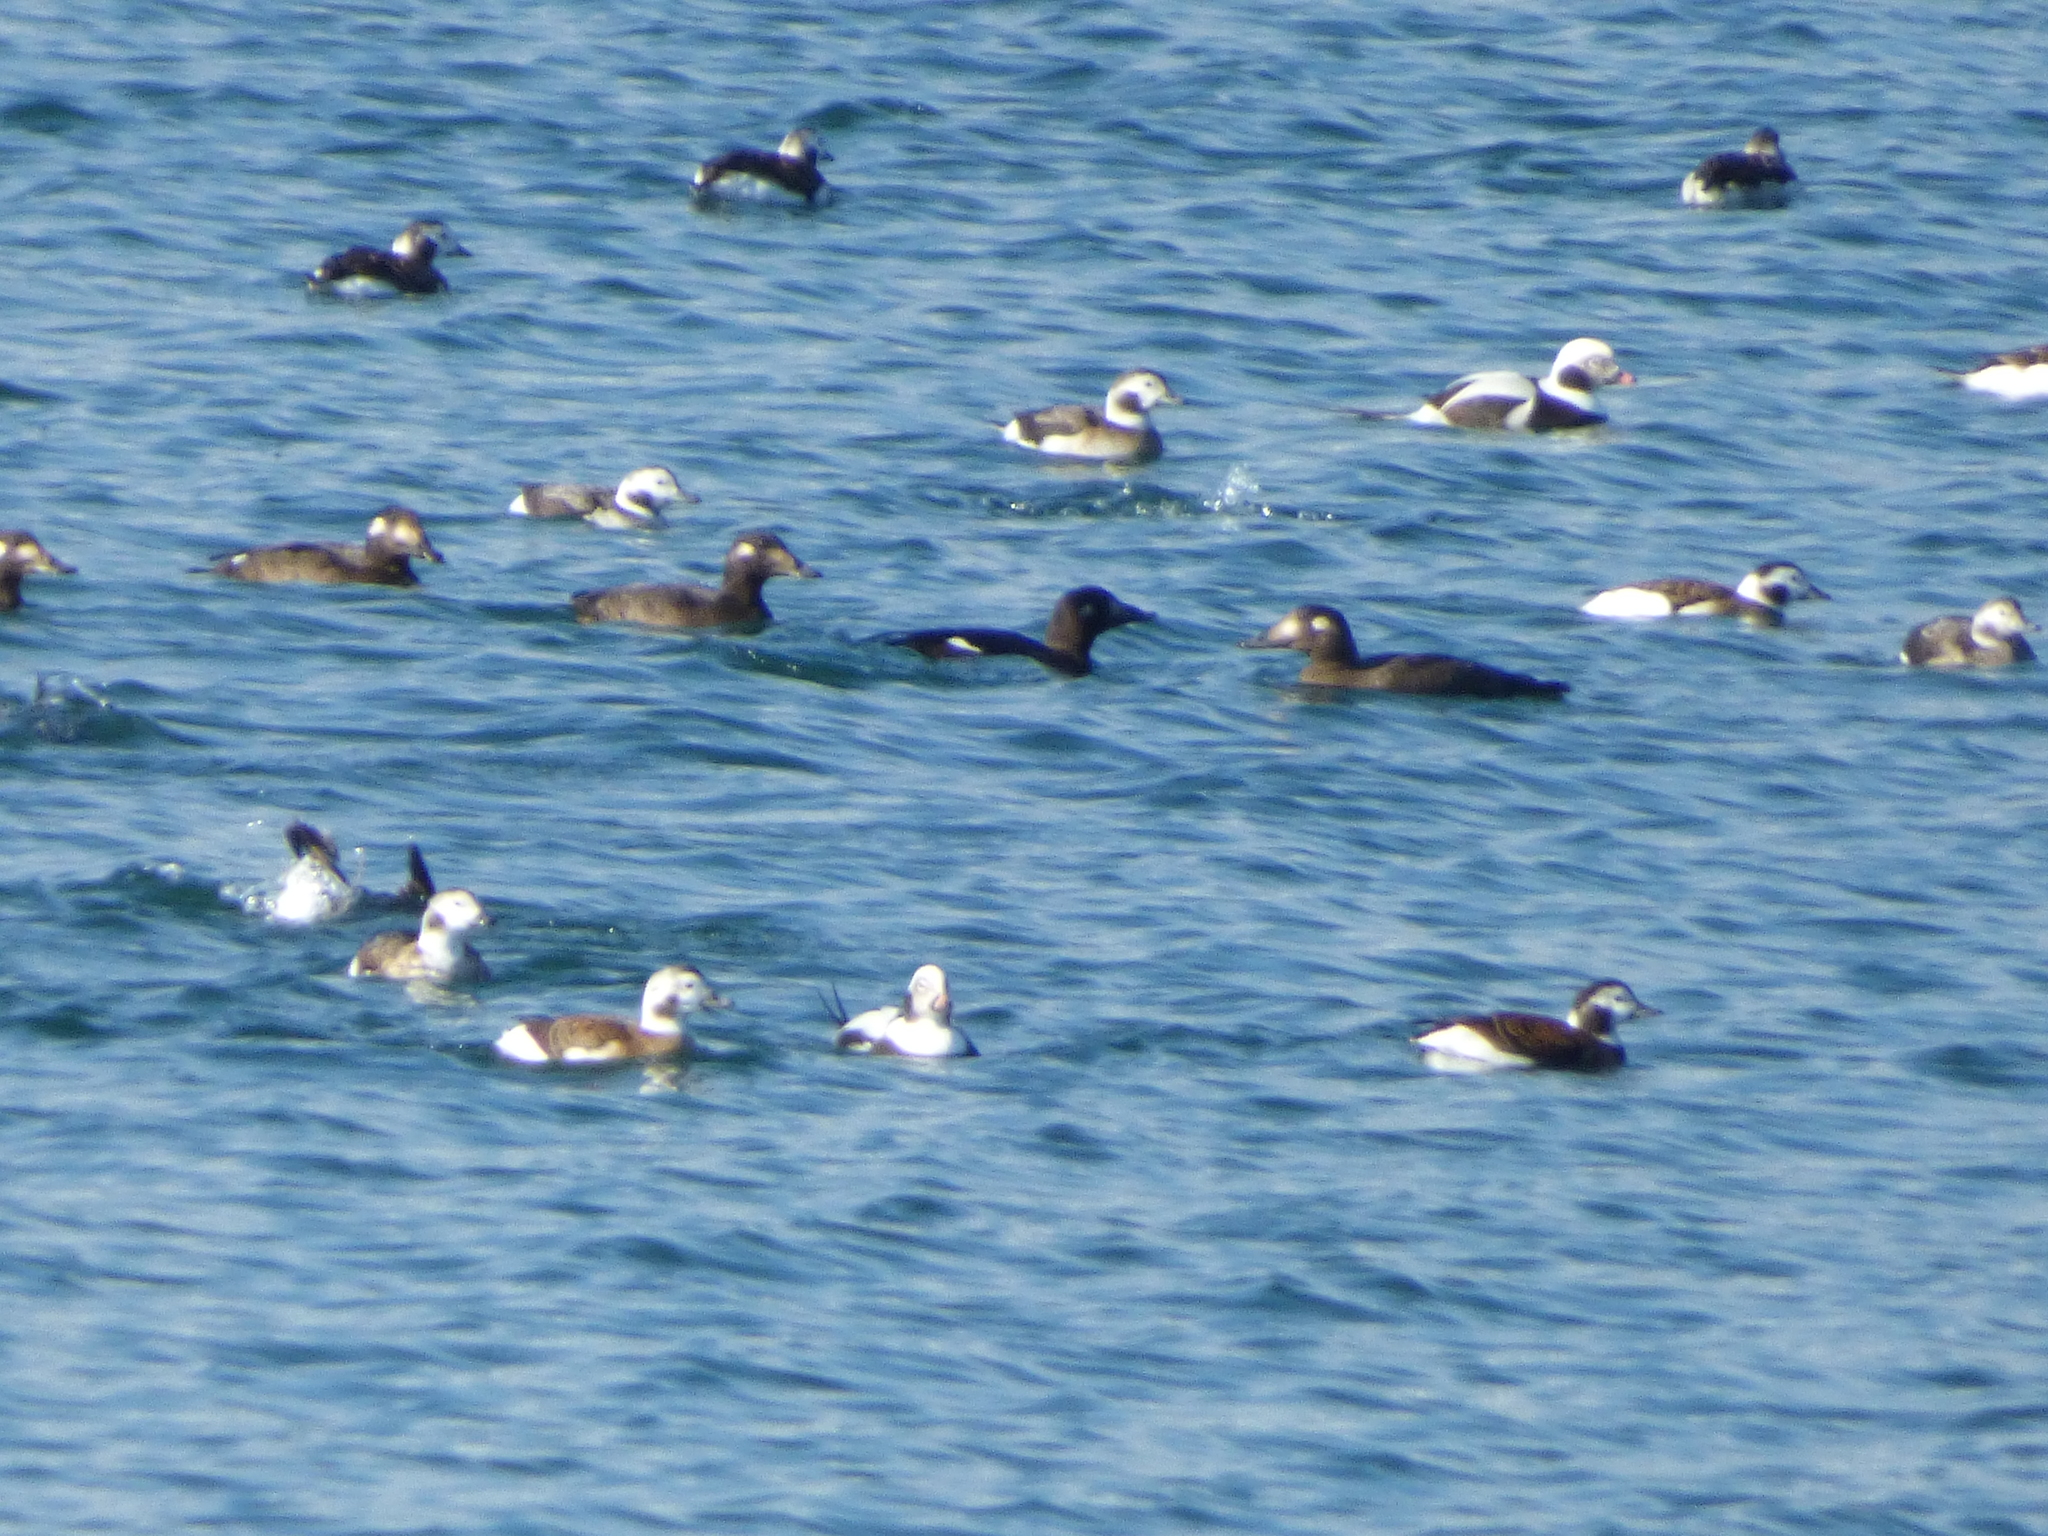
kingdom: Animalia
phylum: Chordata
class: Aves
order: Anseriformes
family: Anatidae
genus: Melanitta
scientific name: Melanitta deglandi
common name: White-winged scoter
